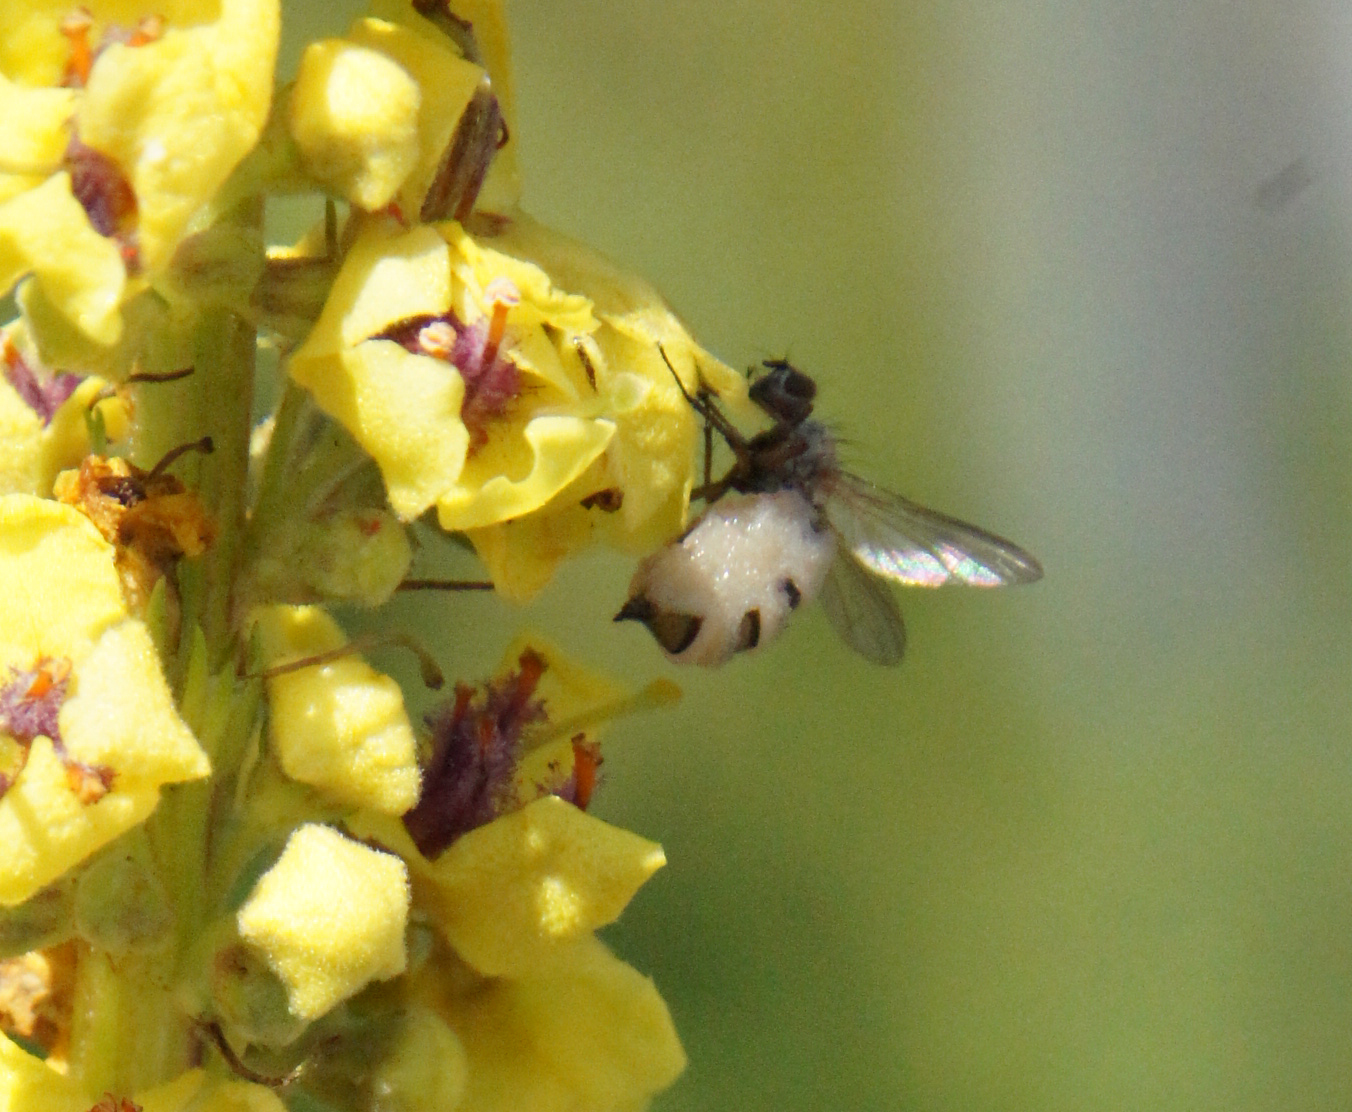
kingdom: Fungi
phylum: Entomophthoromycota
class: Entomophthoromycetes
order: Entomophthorales
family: Entomophthoraceae
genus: Entomophthora
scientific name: Entomophthora
